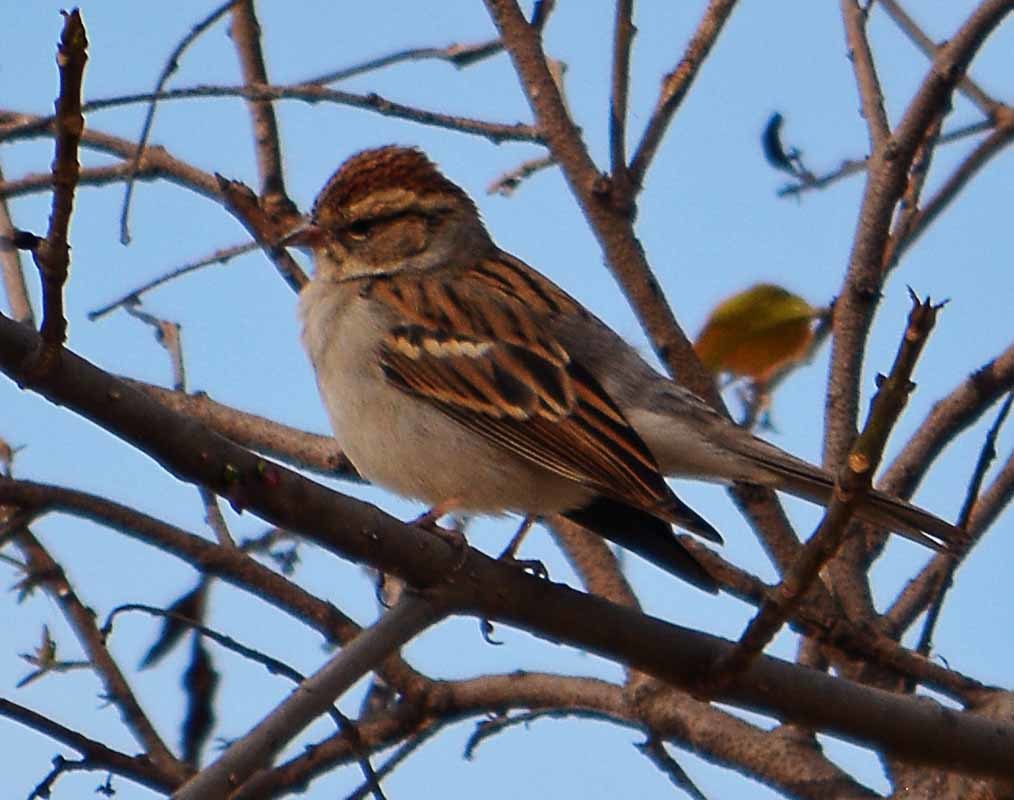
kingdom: Animalia
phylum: Chordata
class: Aves
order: Passeriformes
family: Passerellidae
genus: Spizella
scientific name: Spizella passerina
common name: Chipping sparrow
